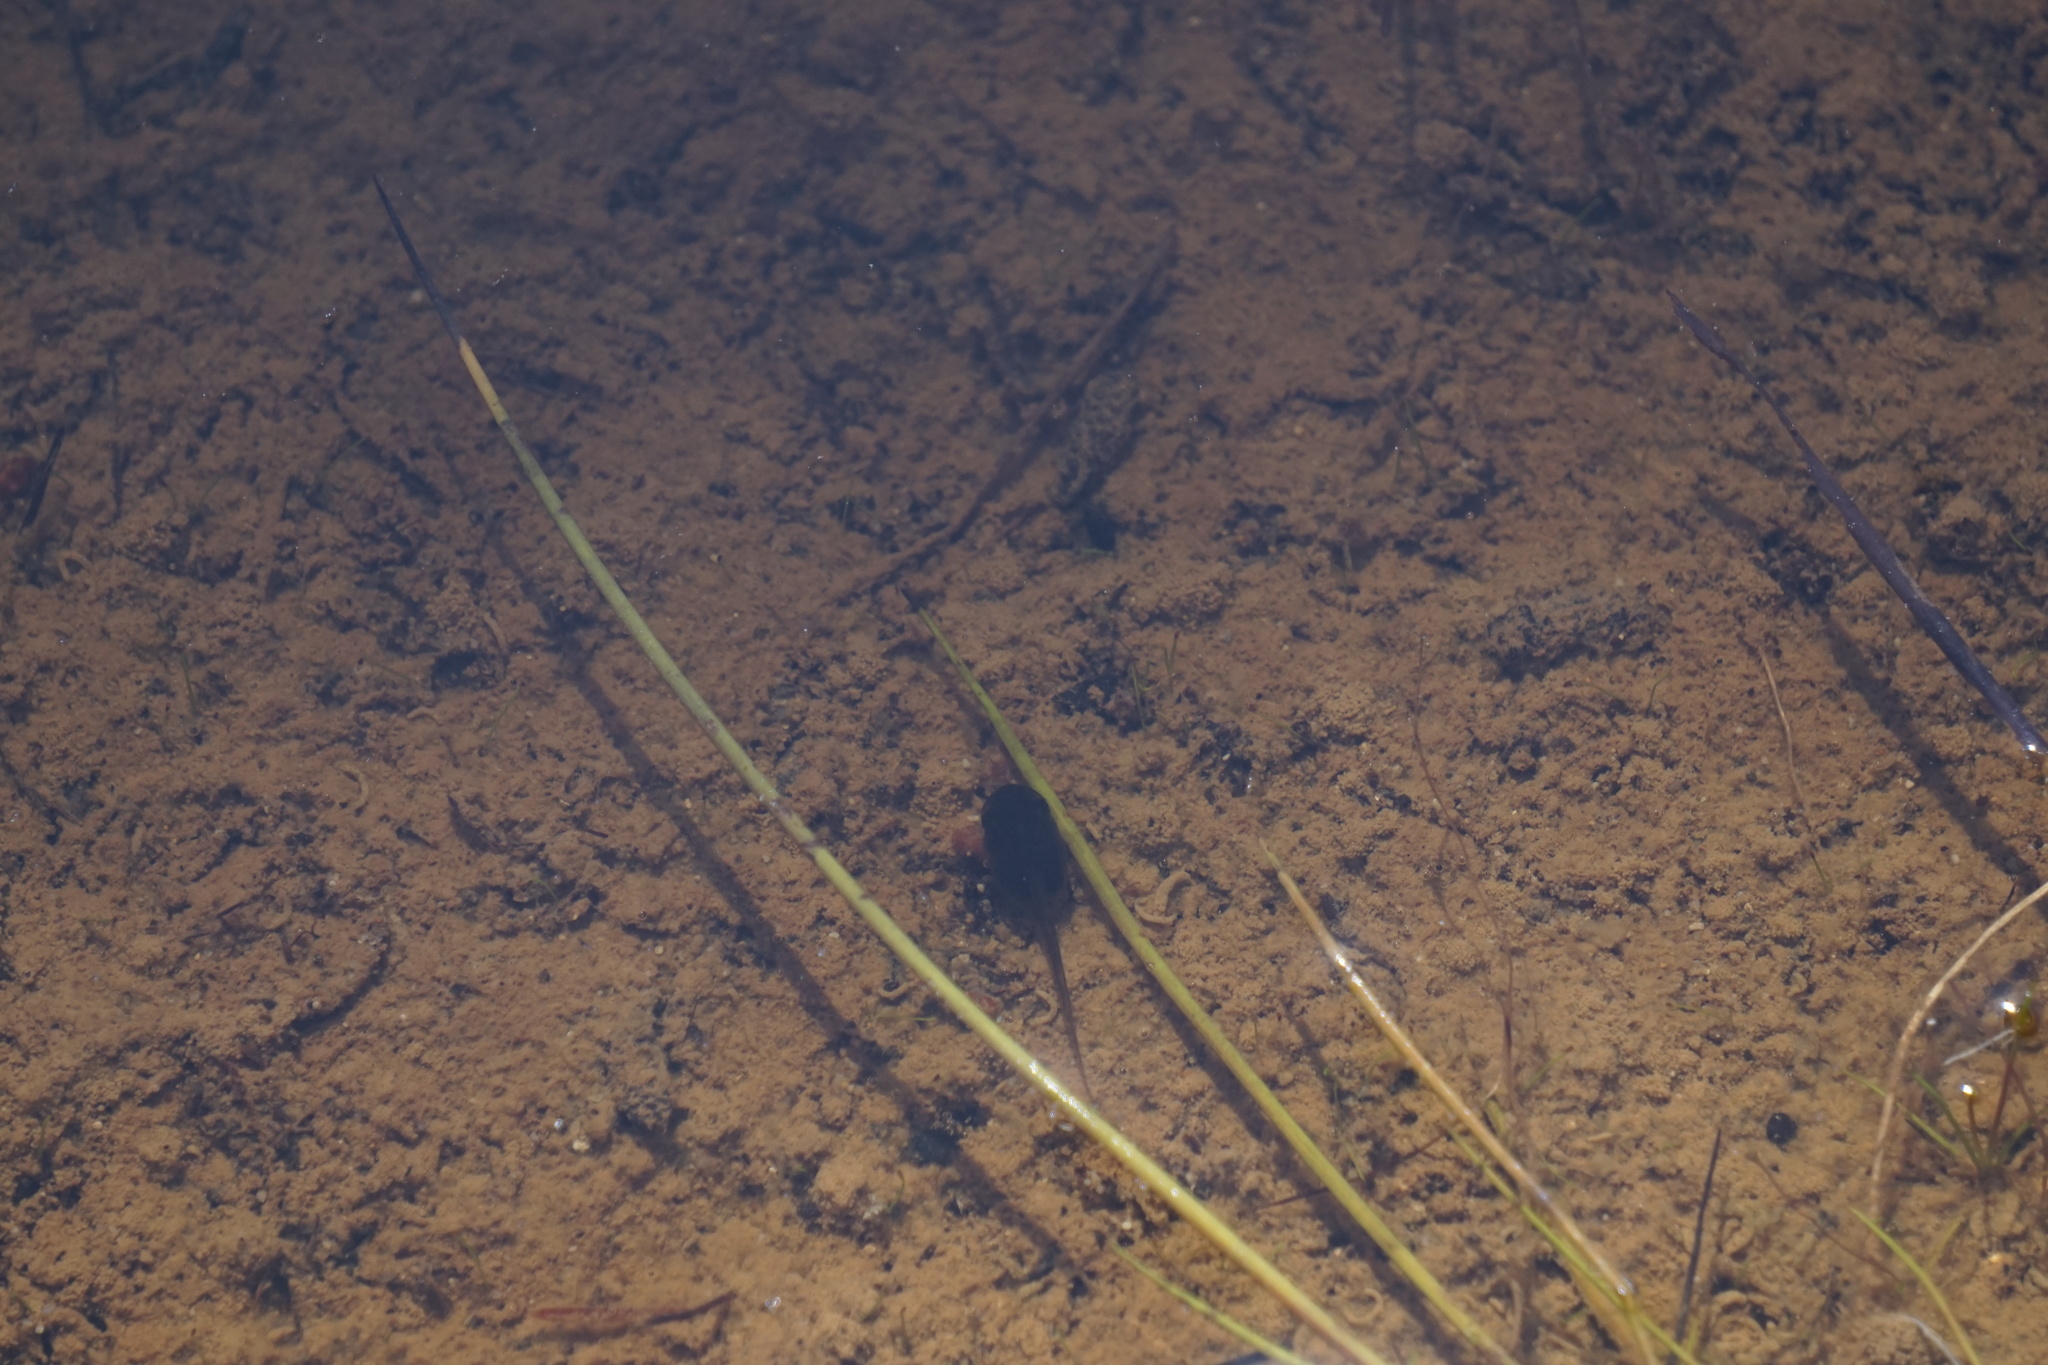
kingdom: Animalia
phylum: Chordata
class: Amphibia
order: Anura
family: Hylidae
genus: Pseudacris
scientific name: Pseudacris regilla
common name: Pacific chorus frog
